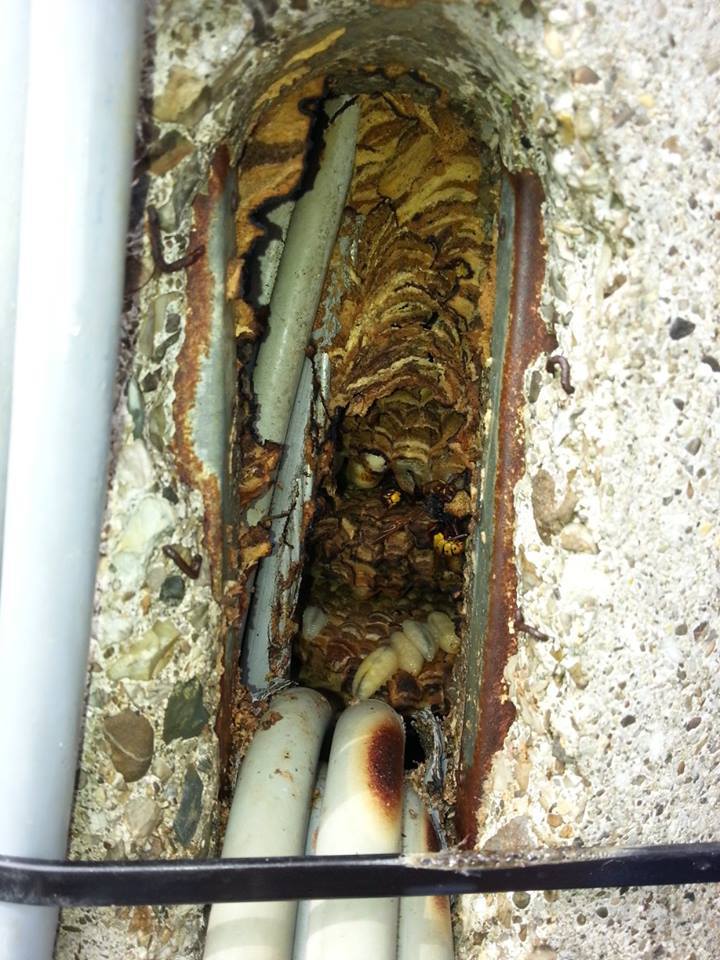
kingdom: Animalia
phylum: Arthropoda
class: Insecta
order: Hymenoptera
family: Vespidae
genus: Vespa
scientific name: Vespa crabro
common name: Hornet
